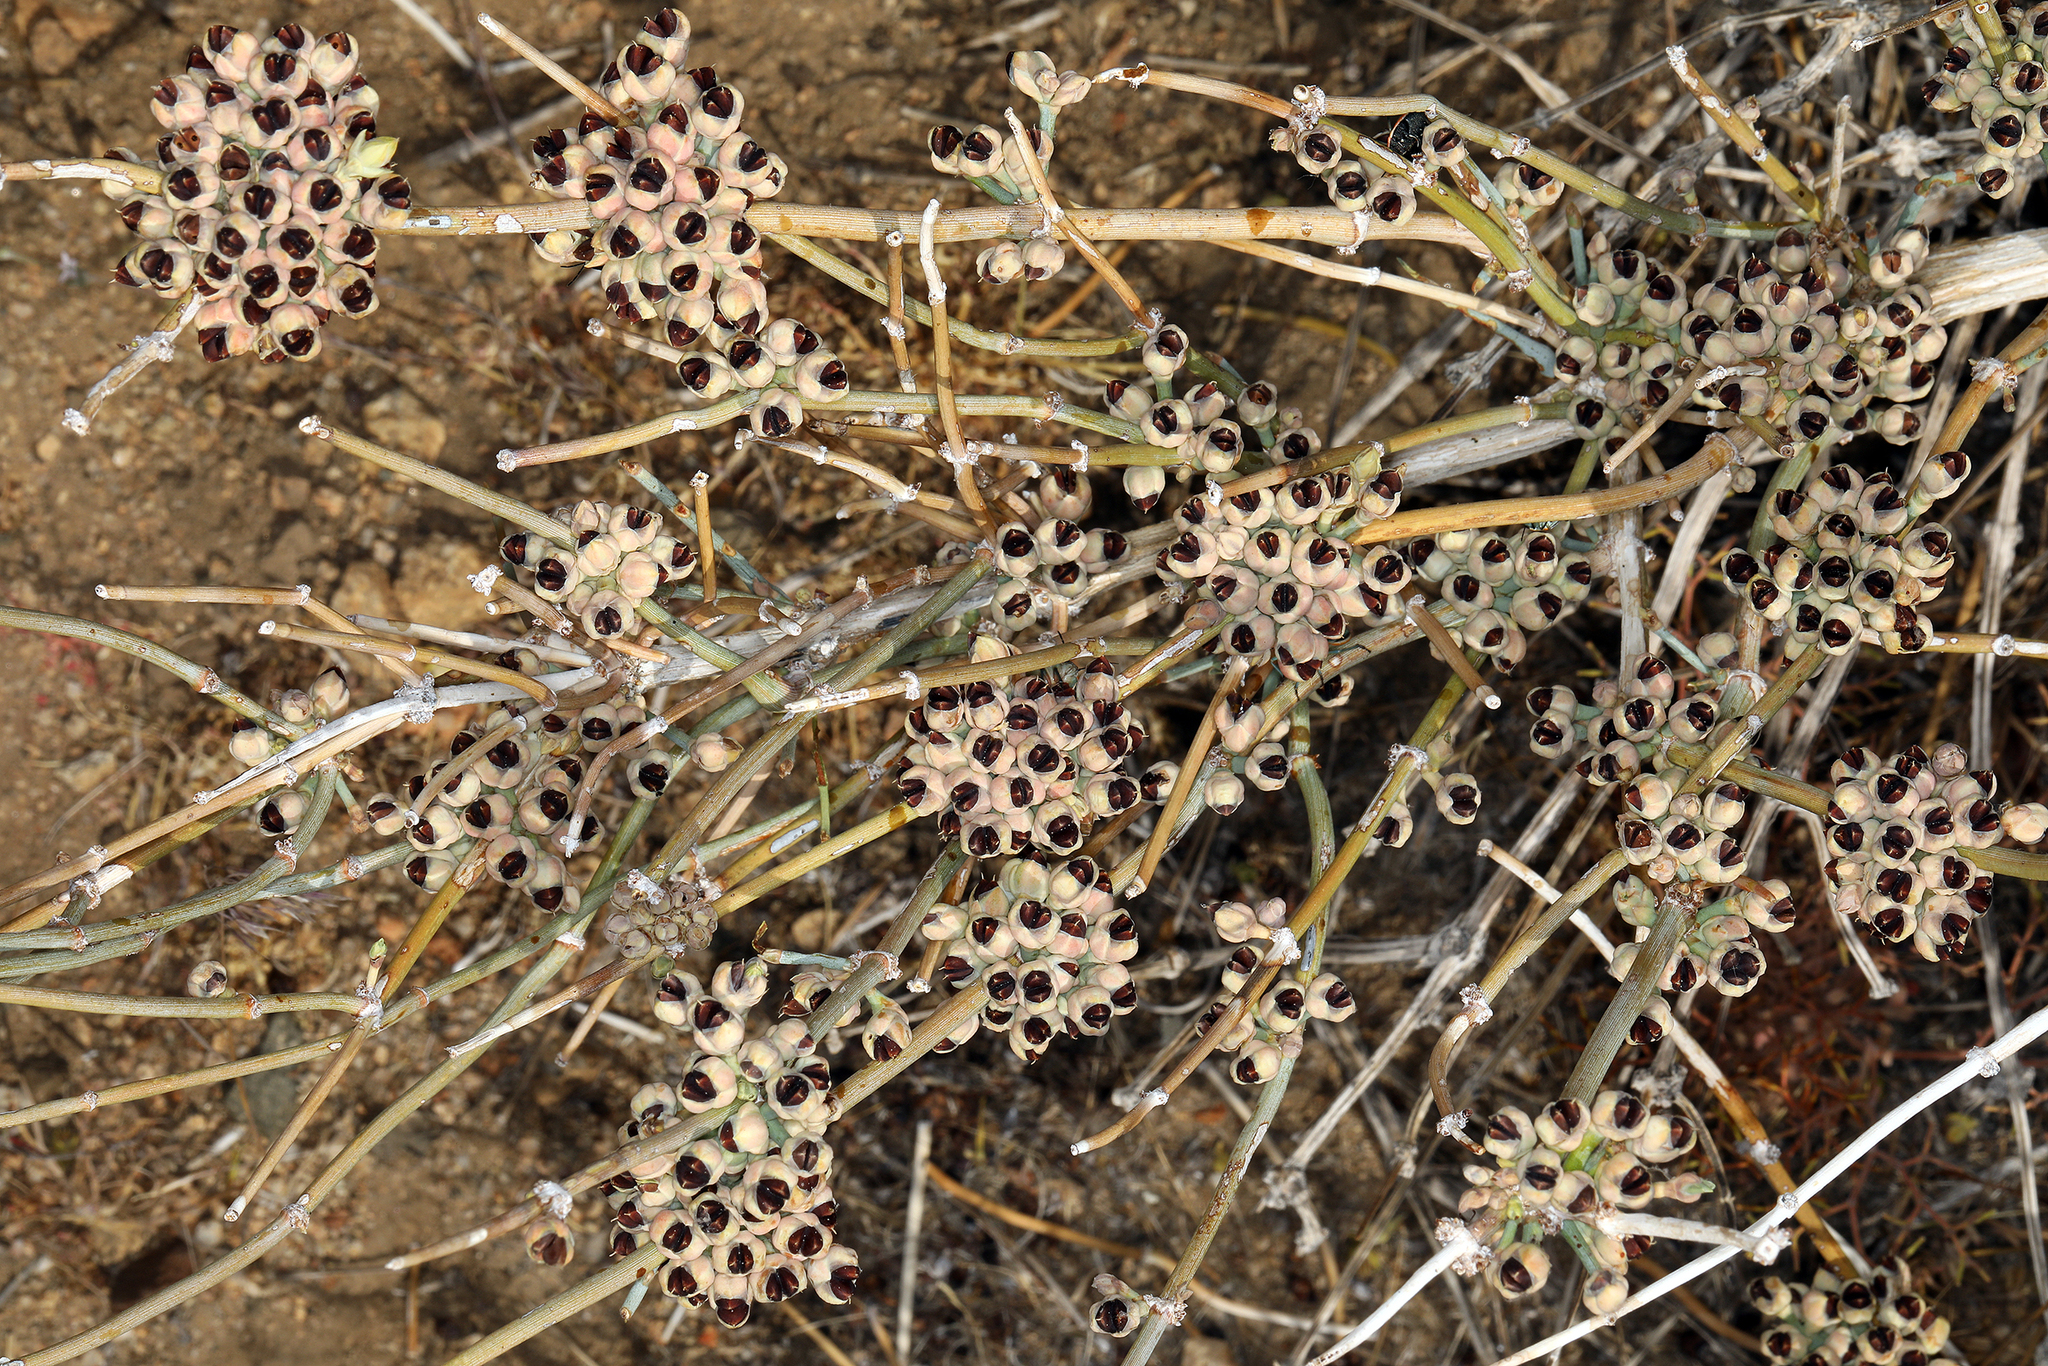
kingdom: Plantae
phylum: Tracheophyta
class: Gnetopsida
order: Ephedrales
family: Ephedraceae
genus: Ephedra
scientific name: Ephedra nevadensis
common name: Gray ephedra
